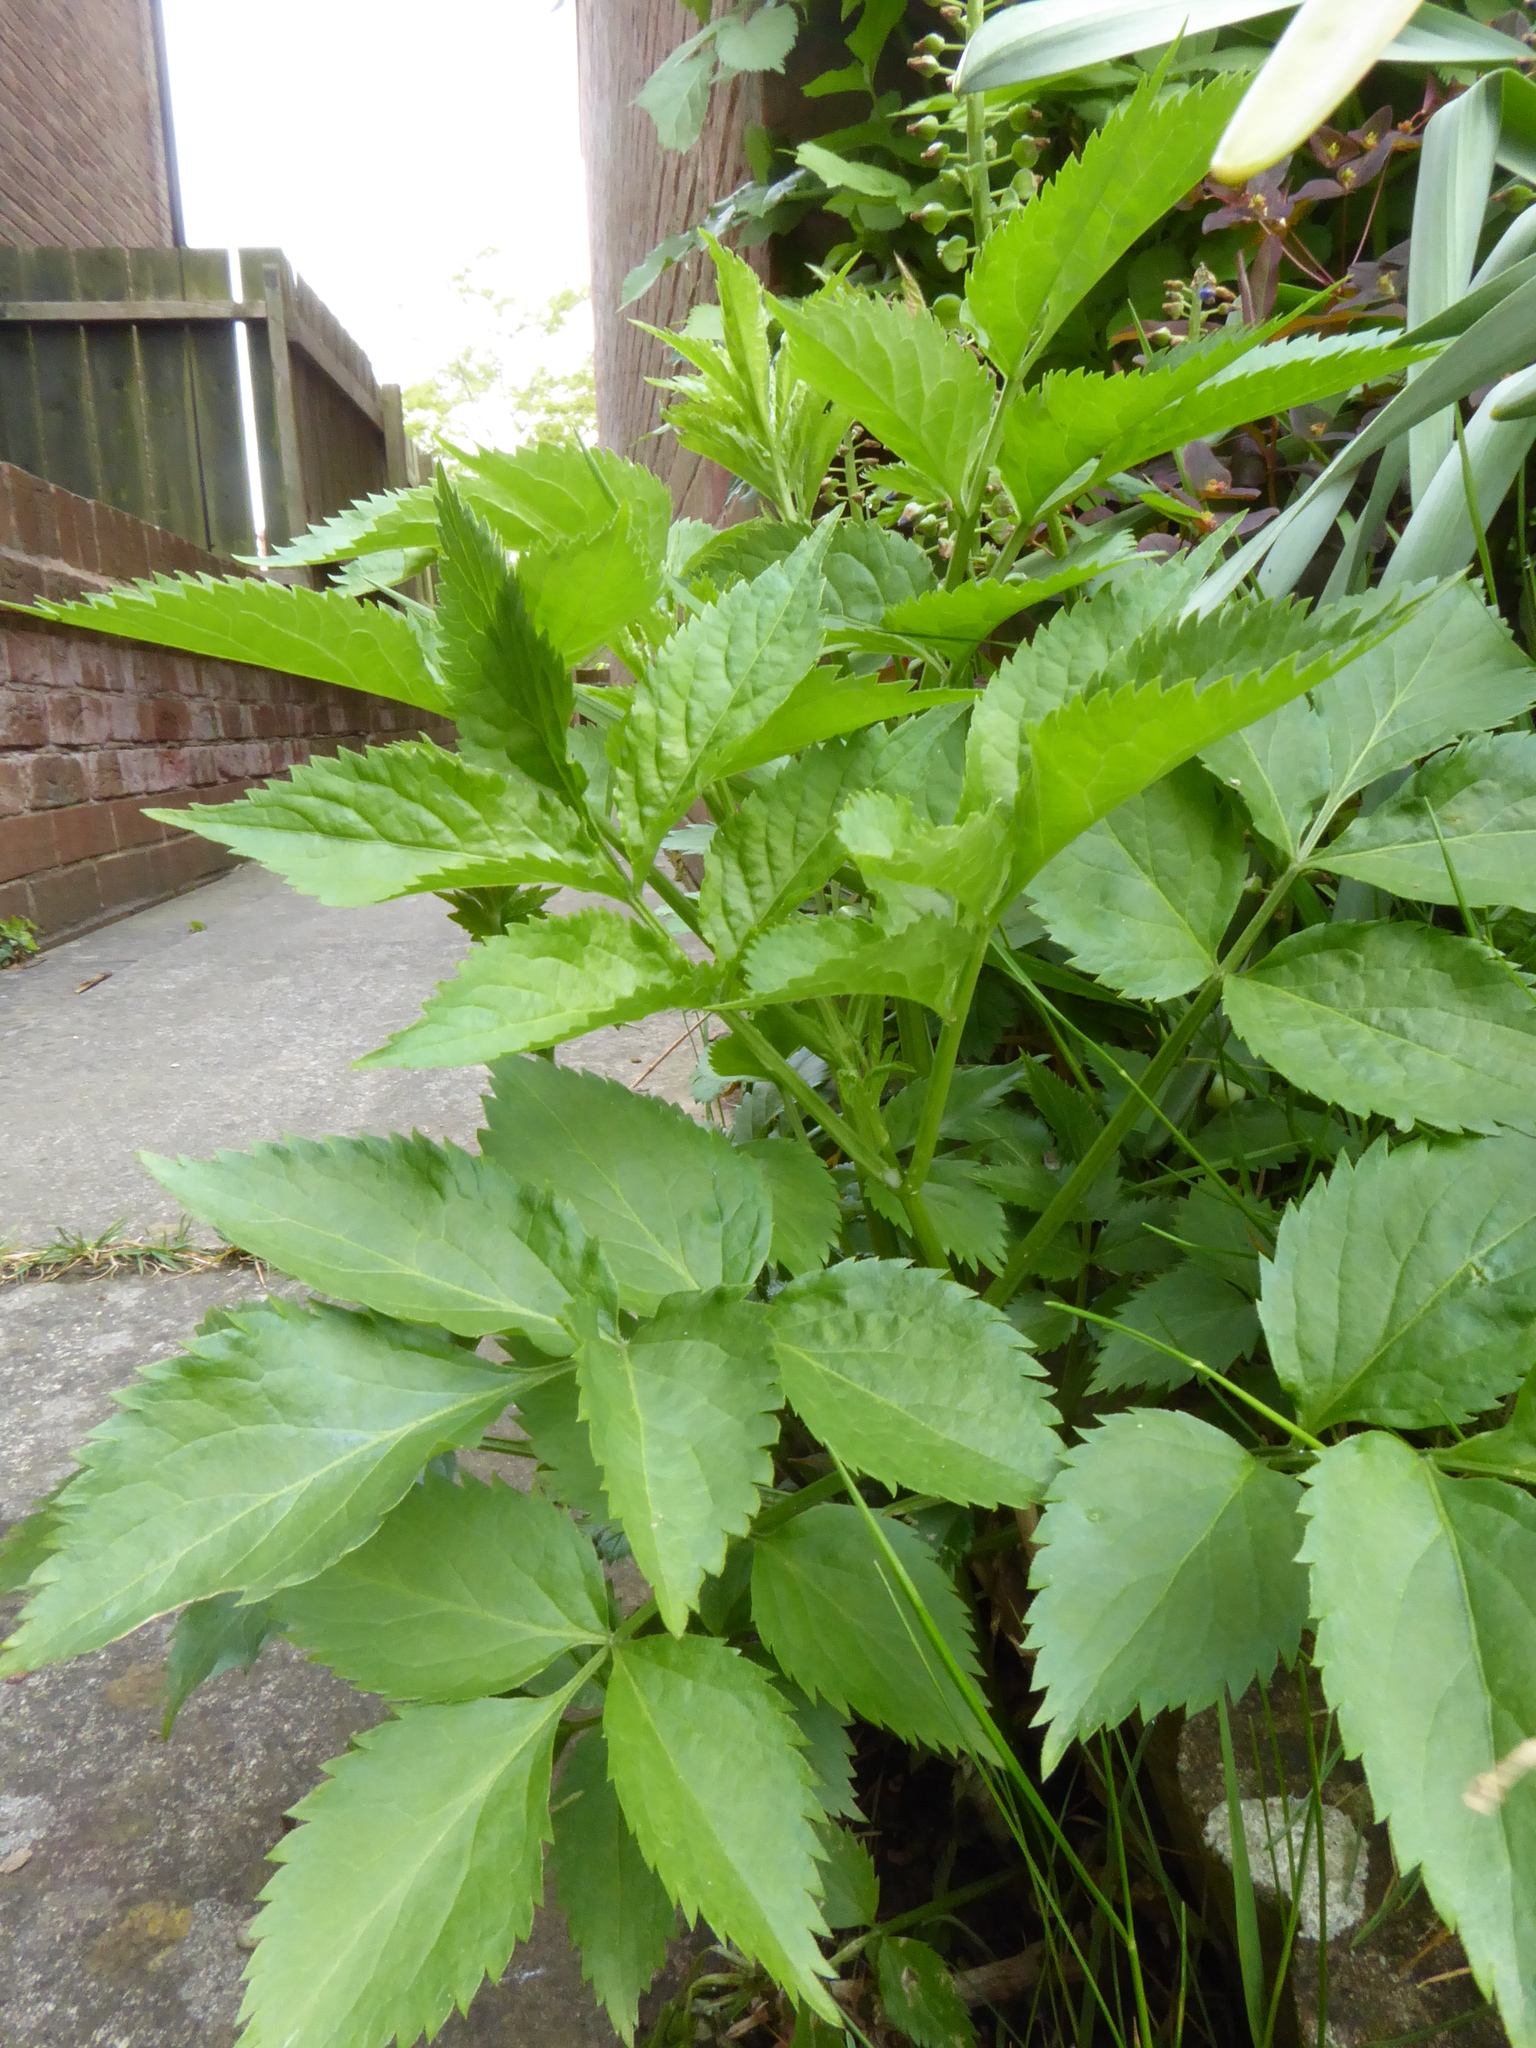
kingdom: Plantae
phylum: Tracheophyta
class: Magnoliopsida
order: Dipsacales
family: Viburnaceae
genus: Sambucus
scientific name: Sambucus nigra
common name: Elder
